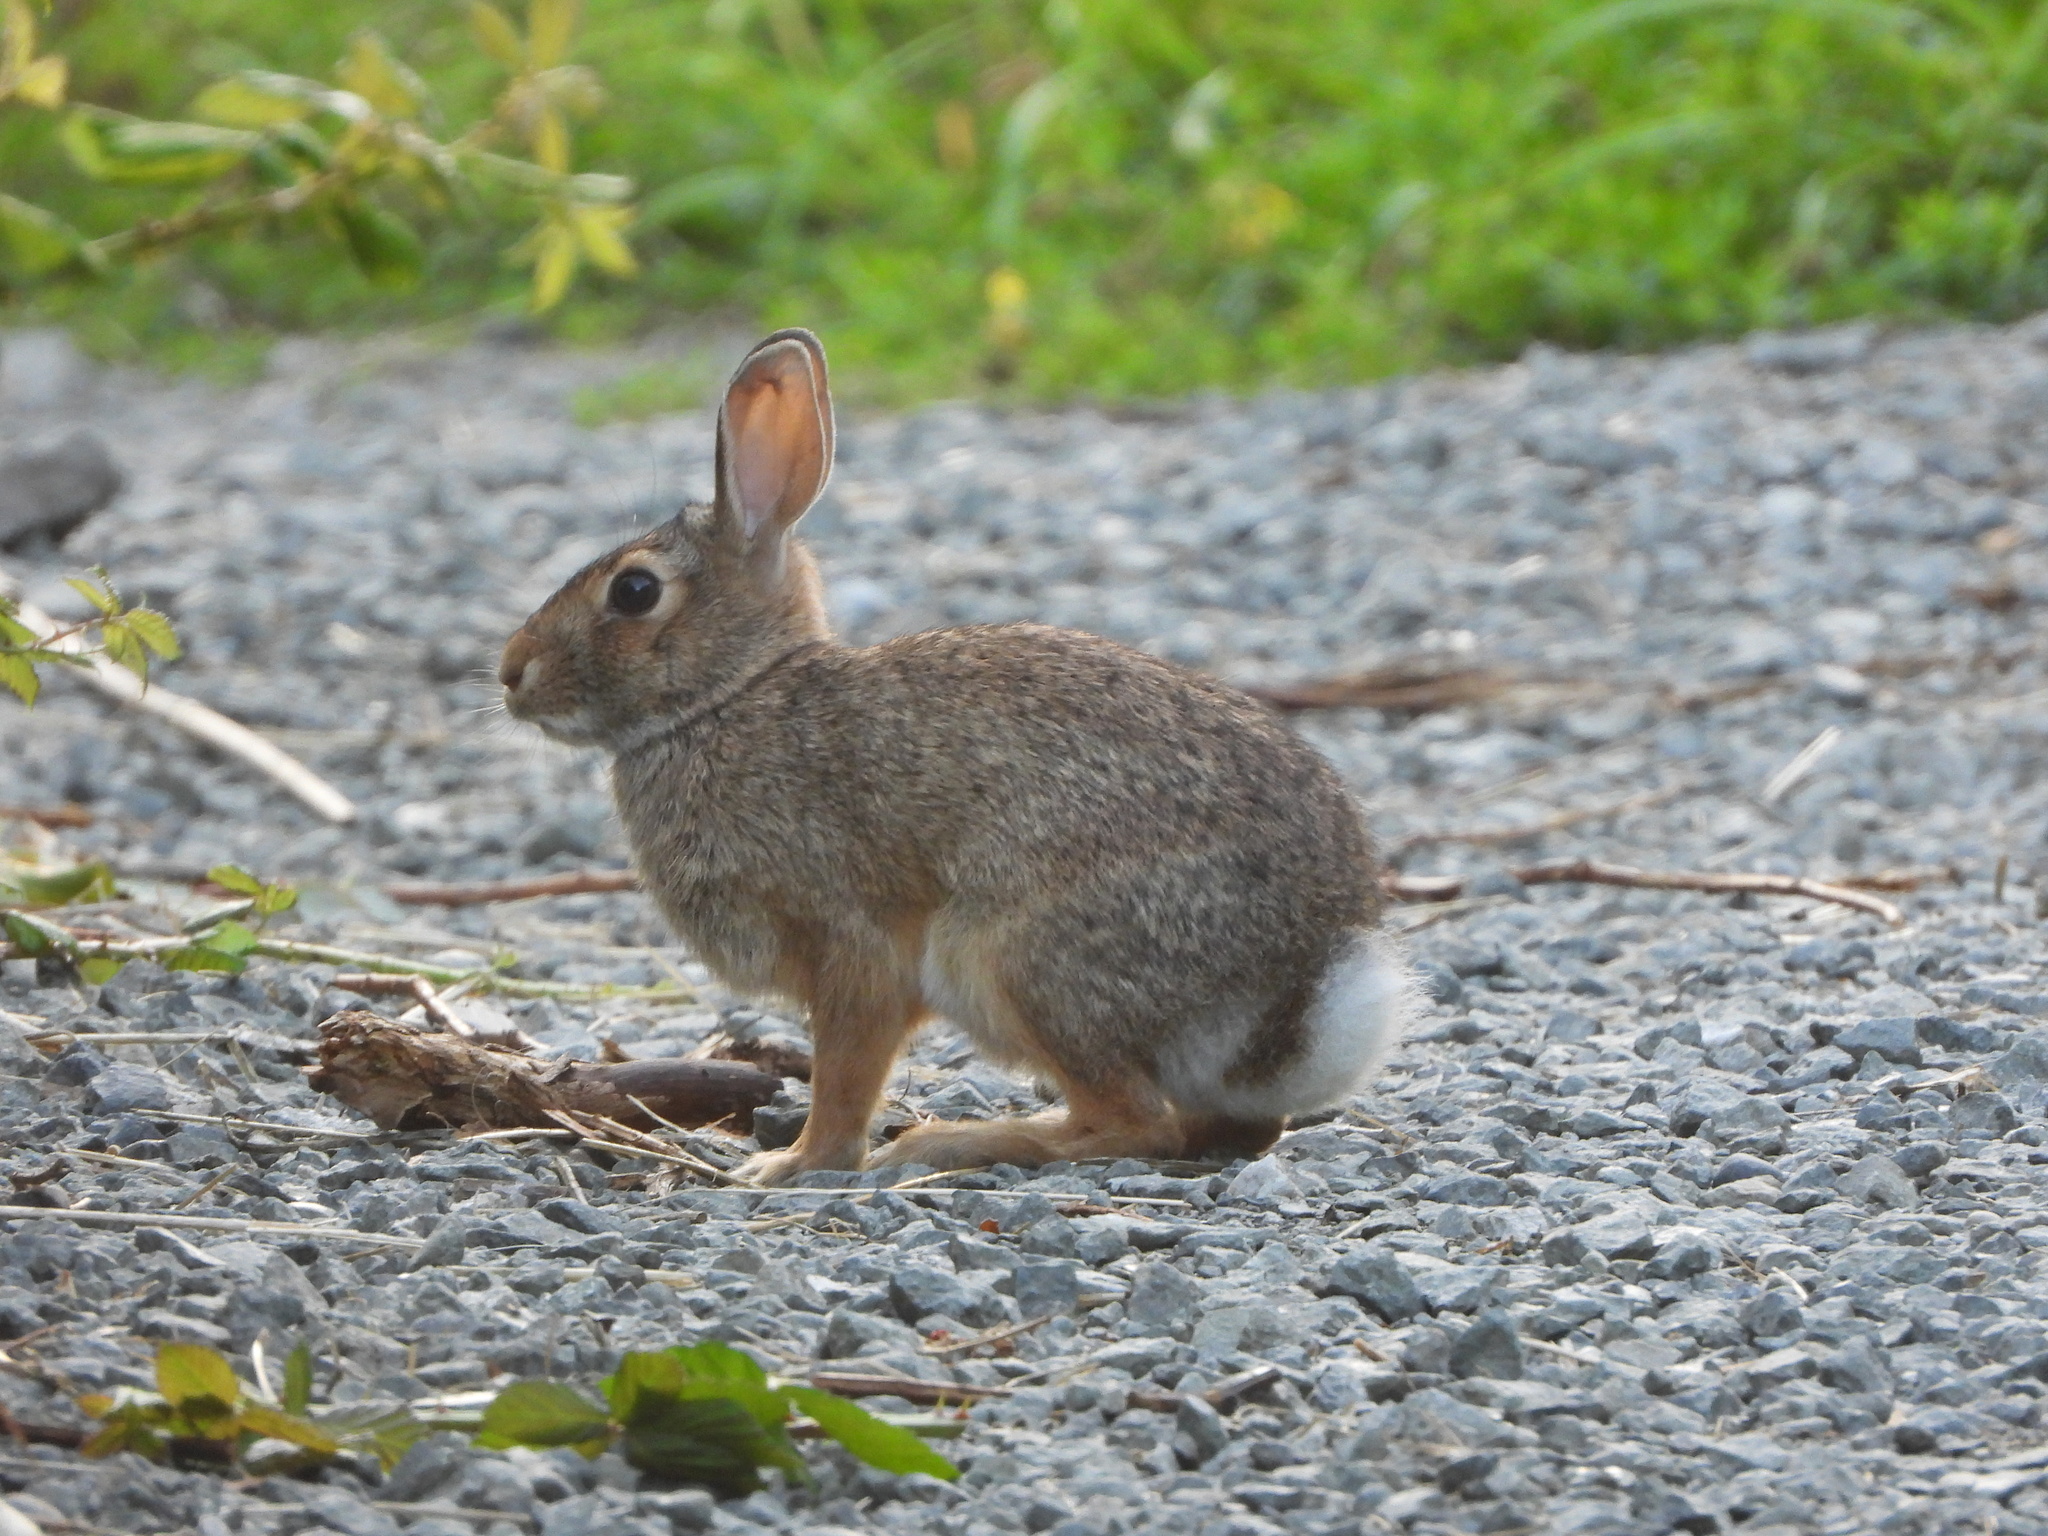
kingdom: Animalia
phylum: Chordata
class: Mammalia
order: Lagomorpha
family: Leporidae
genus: Sylvilagus
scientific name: Sylvilagus floridanus
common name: Eastern cottontail
